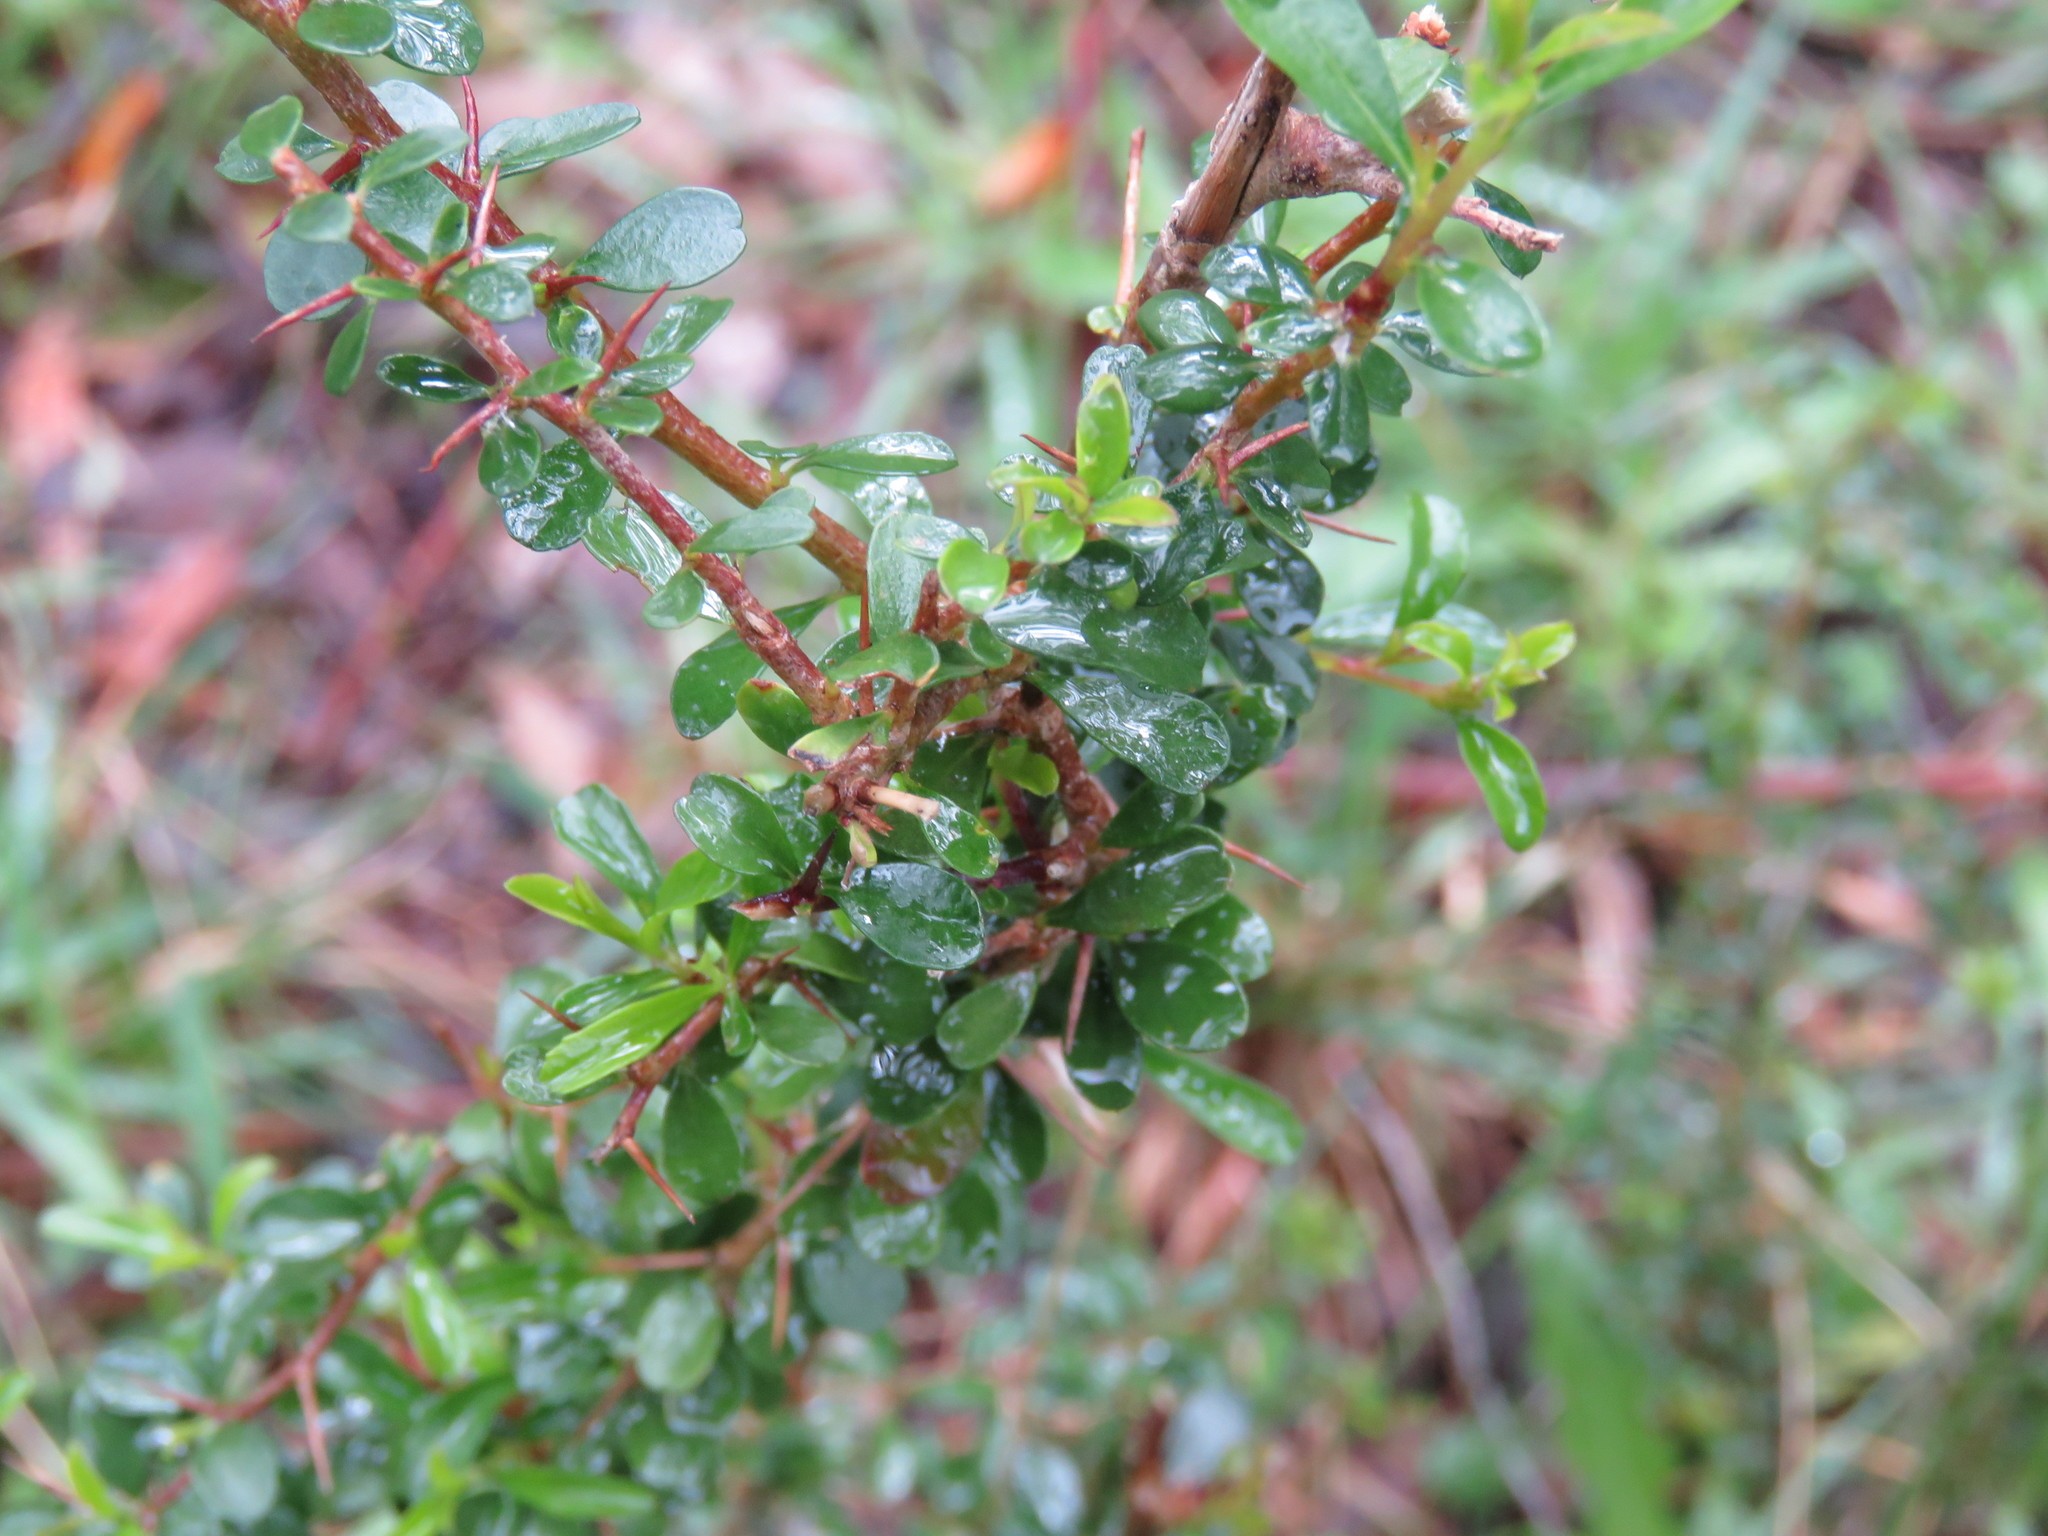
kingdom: Plantae
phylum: Tracheophyta
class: Magnoliopsida
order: Apiales
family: Pittosporaceae
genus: Bursaria
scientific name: Bursaria spinosa
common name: Australian blackthorn
